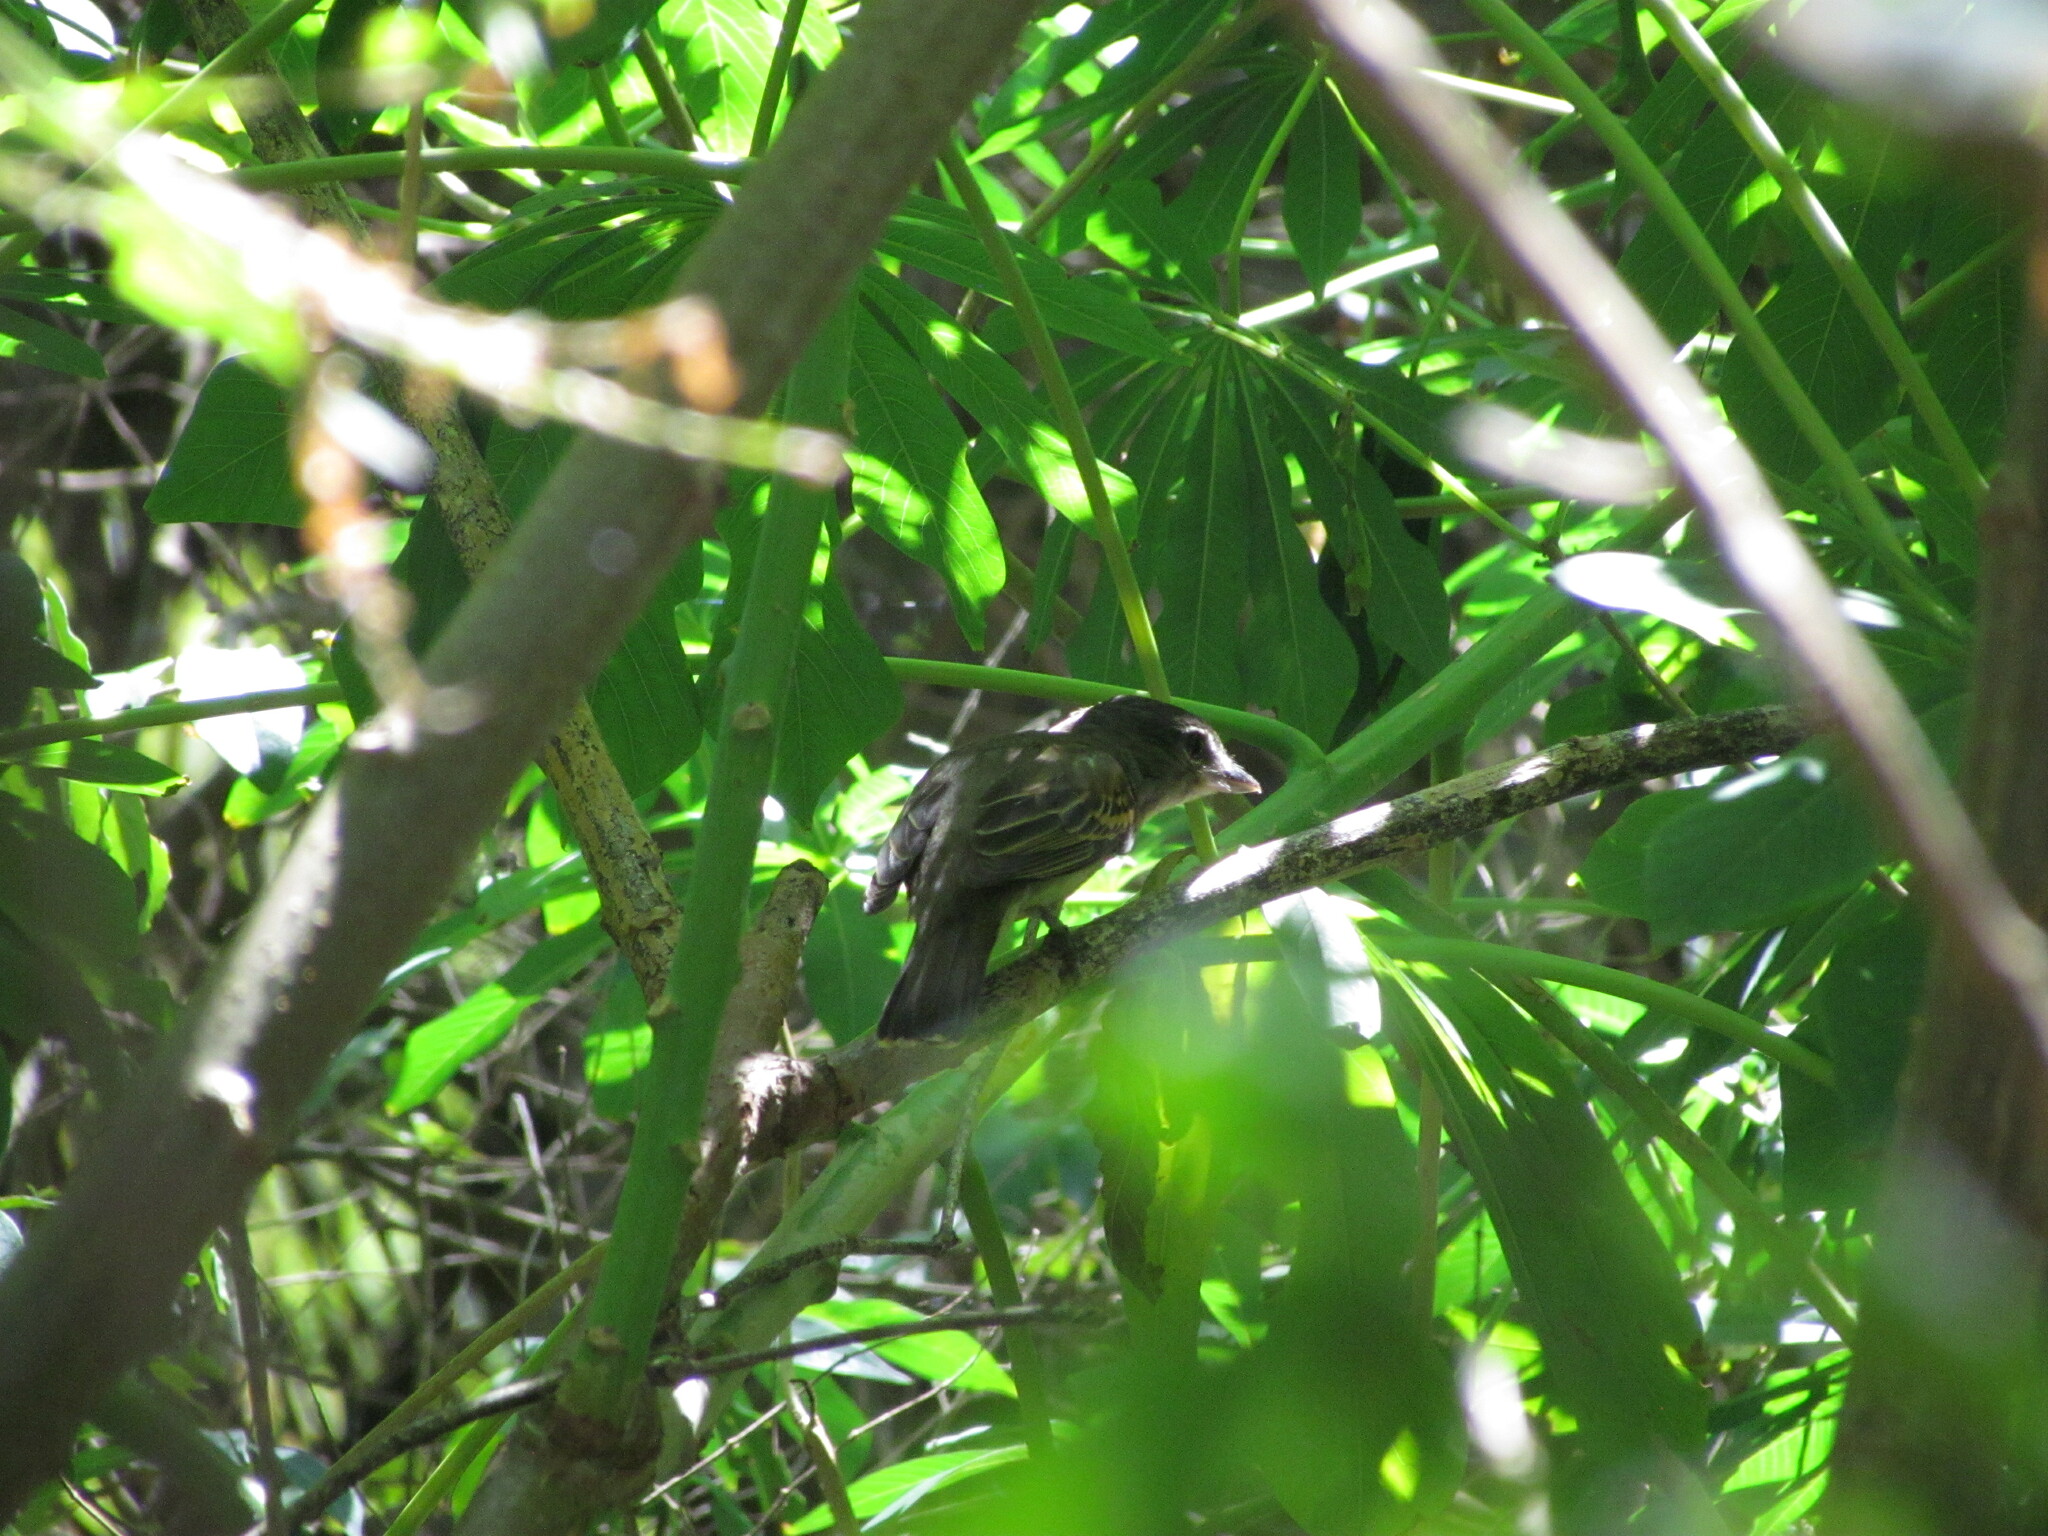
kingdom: Animalia
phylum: Chordata
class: Aves
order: Passeriformes
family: Cotingidae
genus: Pachyramphus
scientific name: Pachyramphus polychopterus
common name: White-winged becard
